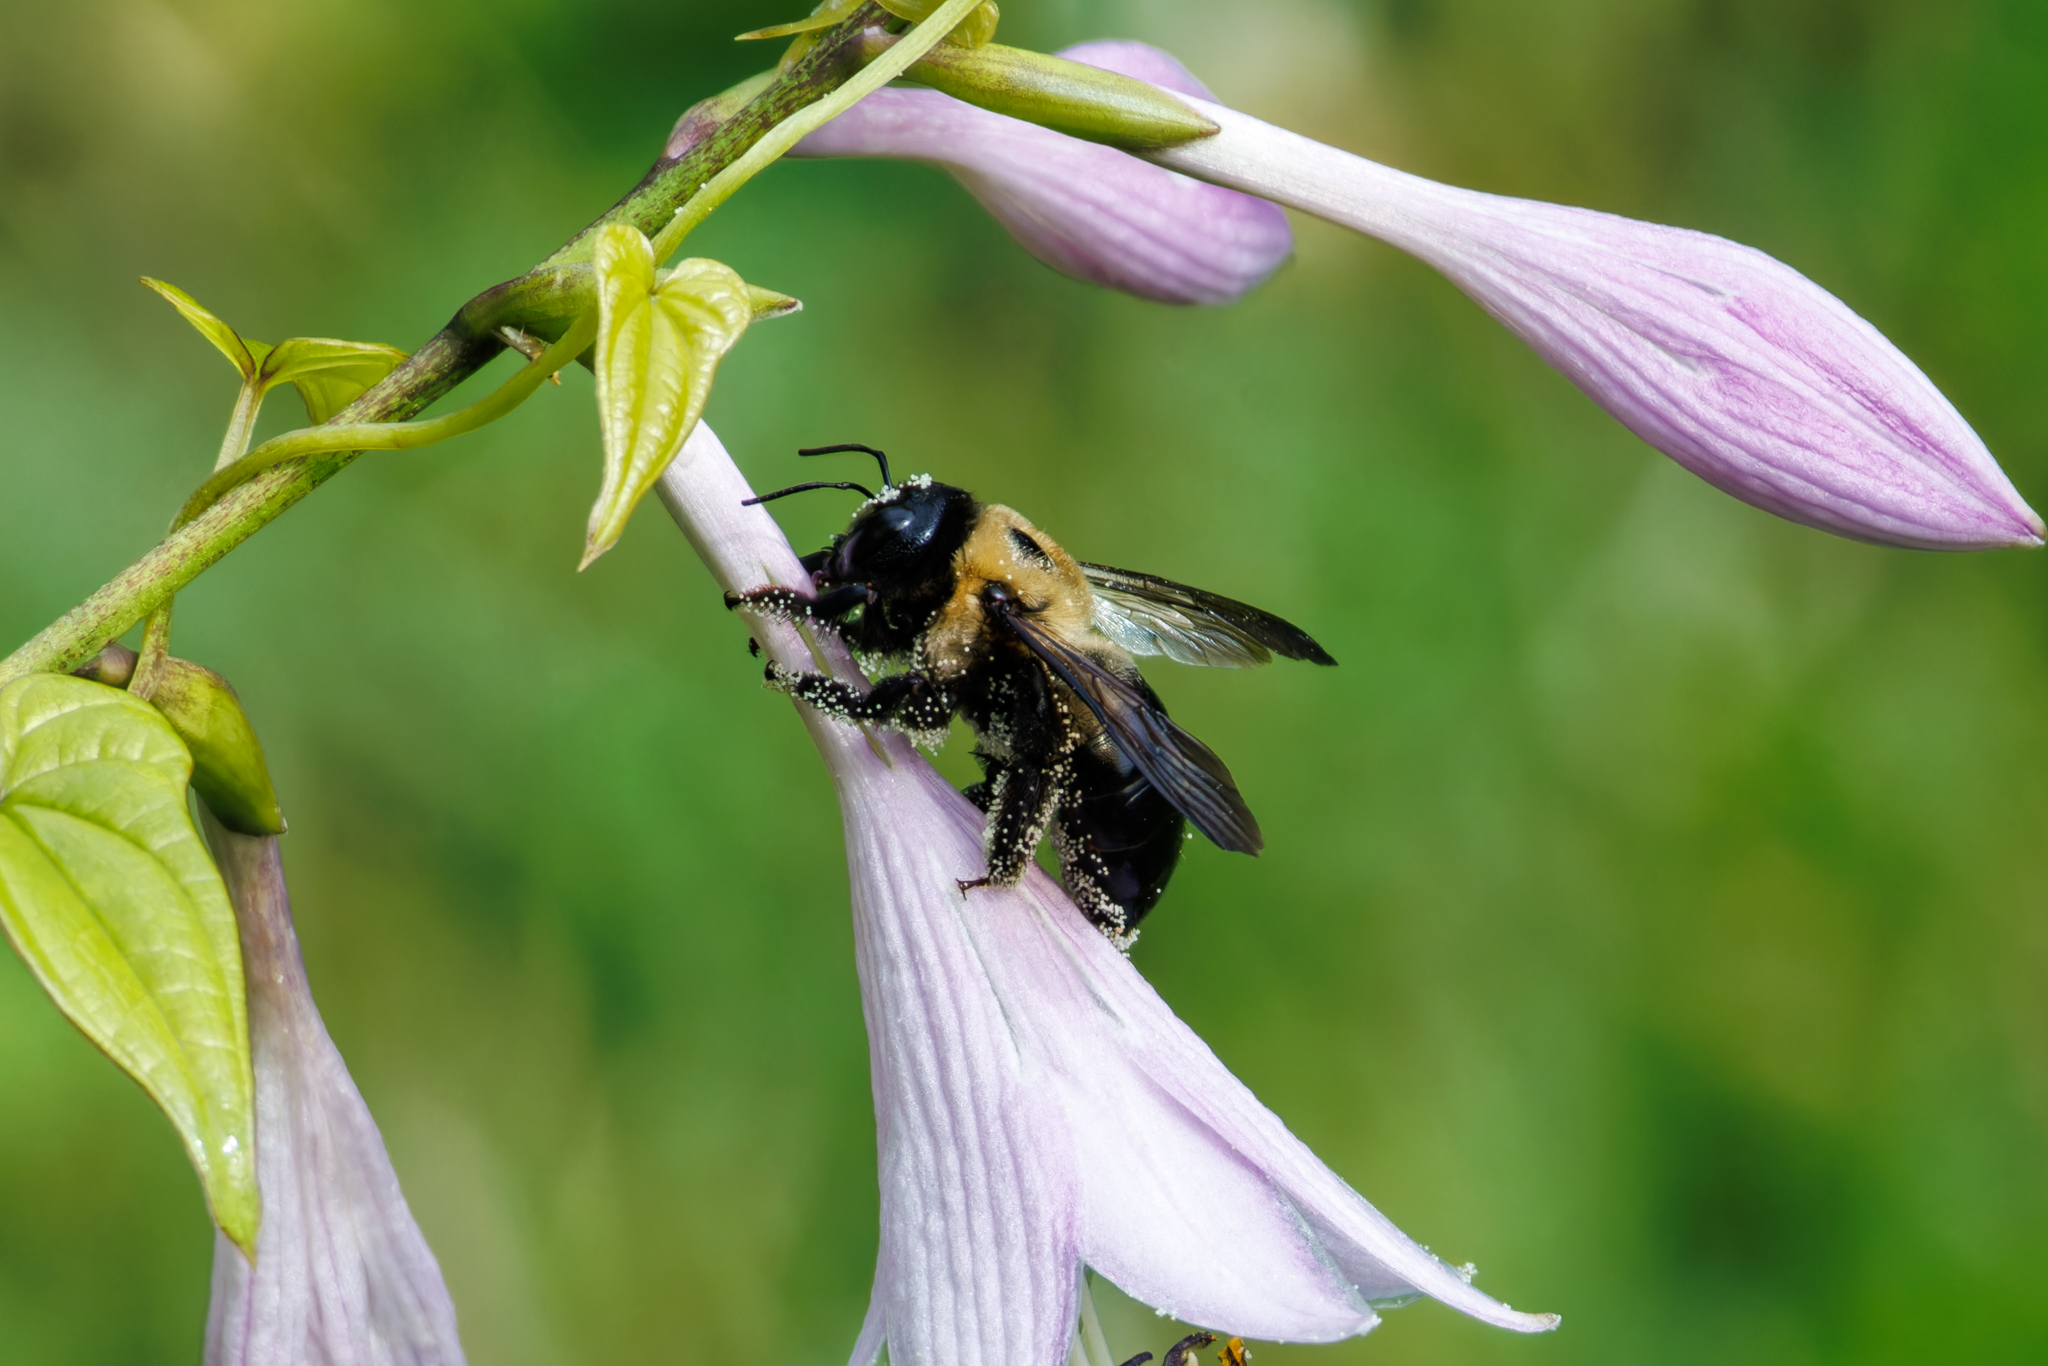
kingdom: Animalia
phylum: Arthropoda
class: Insecta
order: Hymenoptera
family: Apidae
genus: Xylocopa
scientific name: Xylocopa virginica
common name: Carpenter bee
